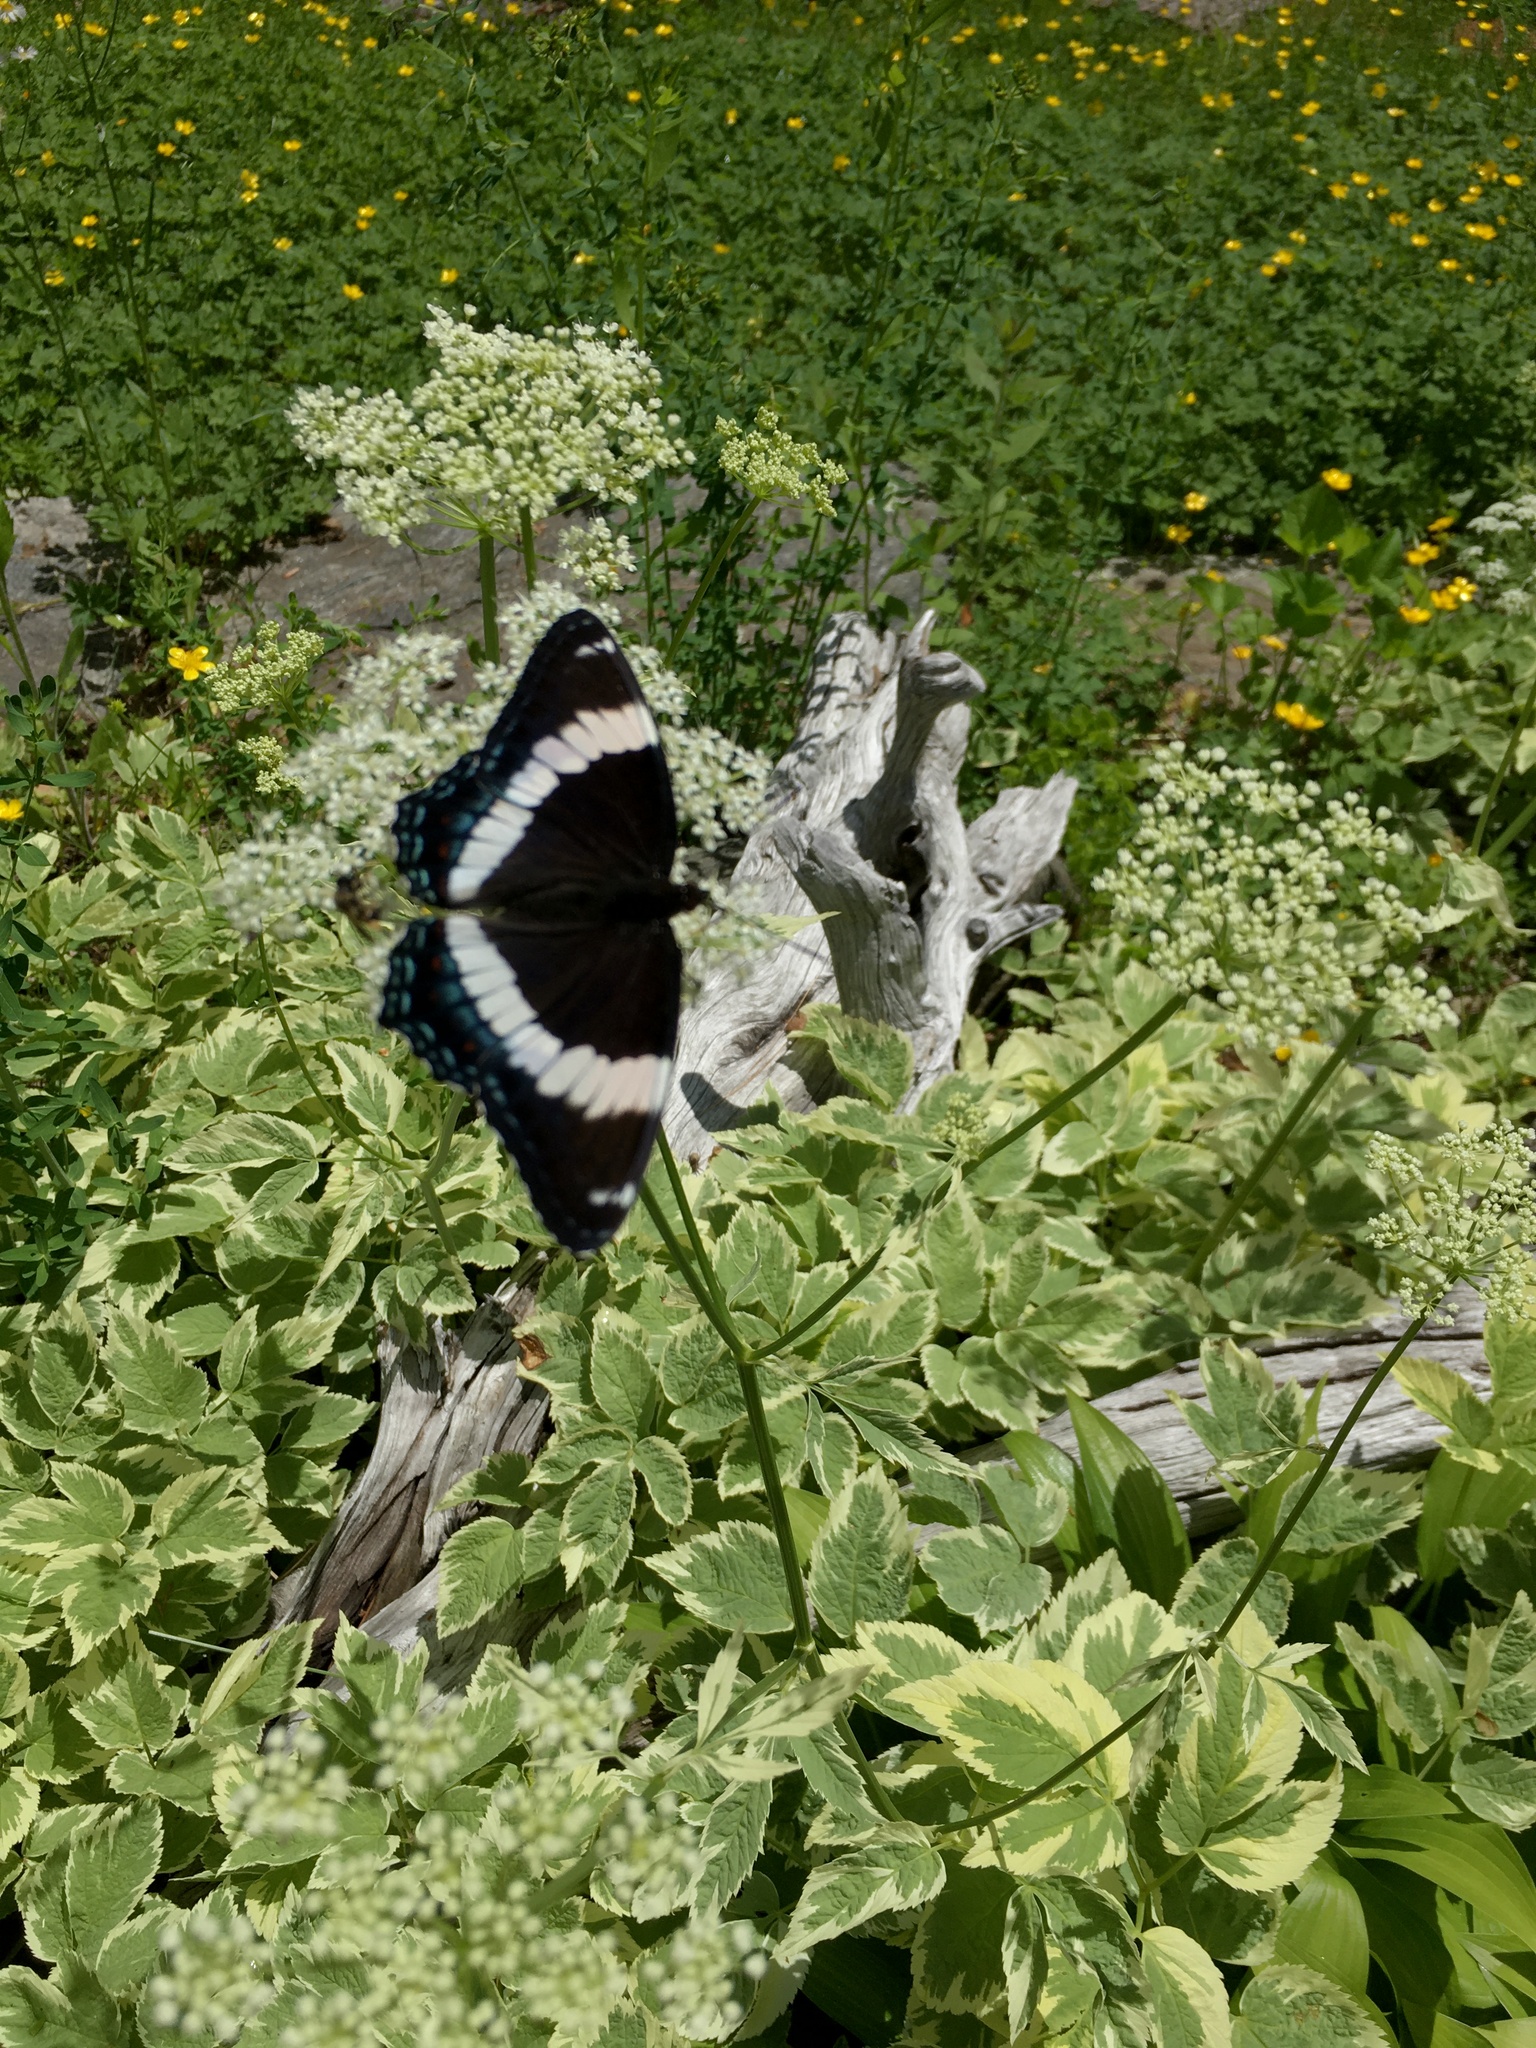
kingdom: Animalia
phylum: Arthropoda
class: Insecta
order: Lepidoptera
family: Nymphalidae
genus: Limenitis
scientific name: Limenitis arthemis
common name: Red-spotted admiral
